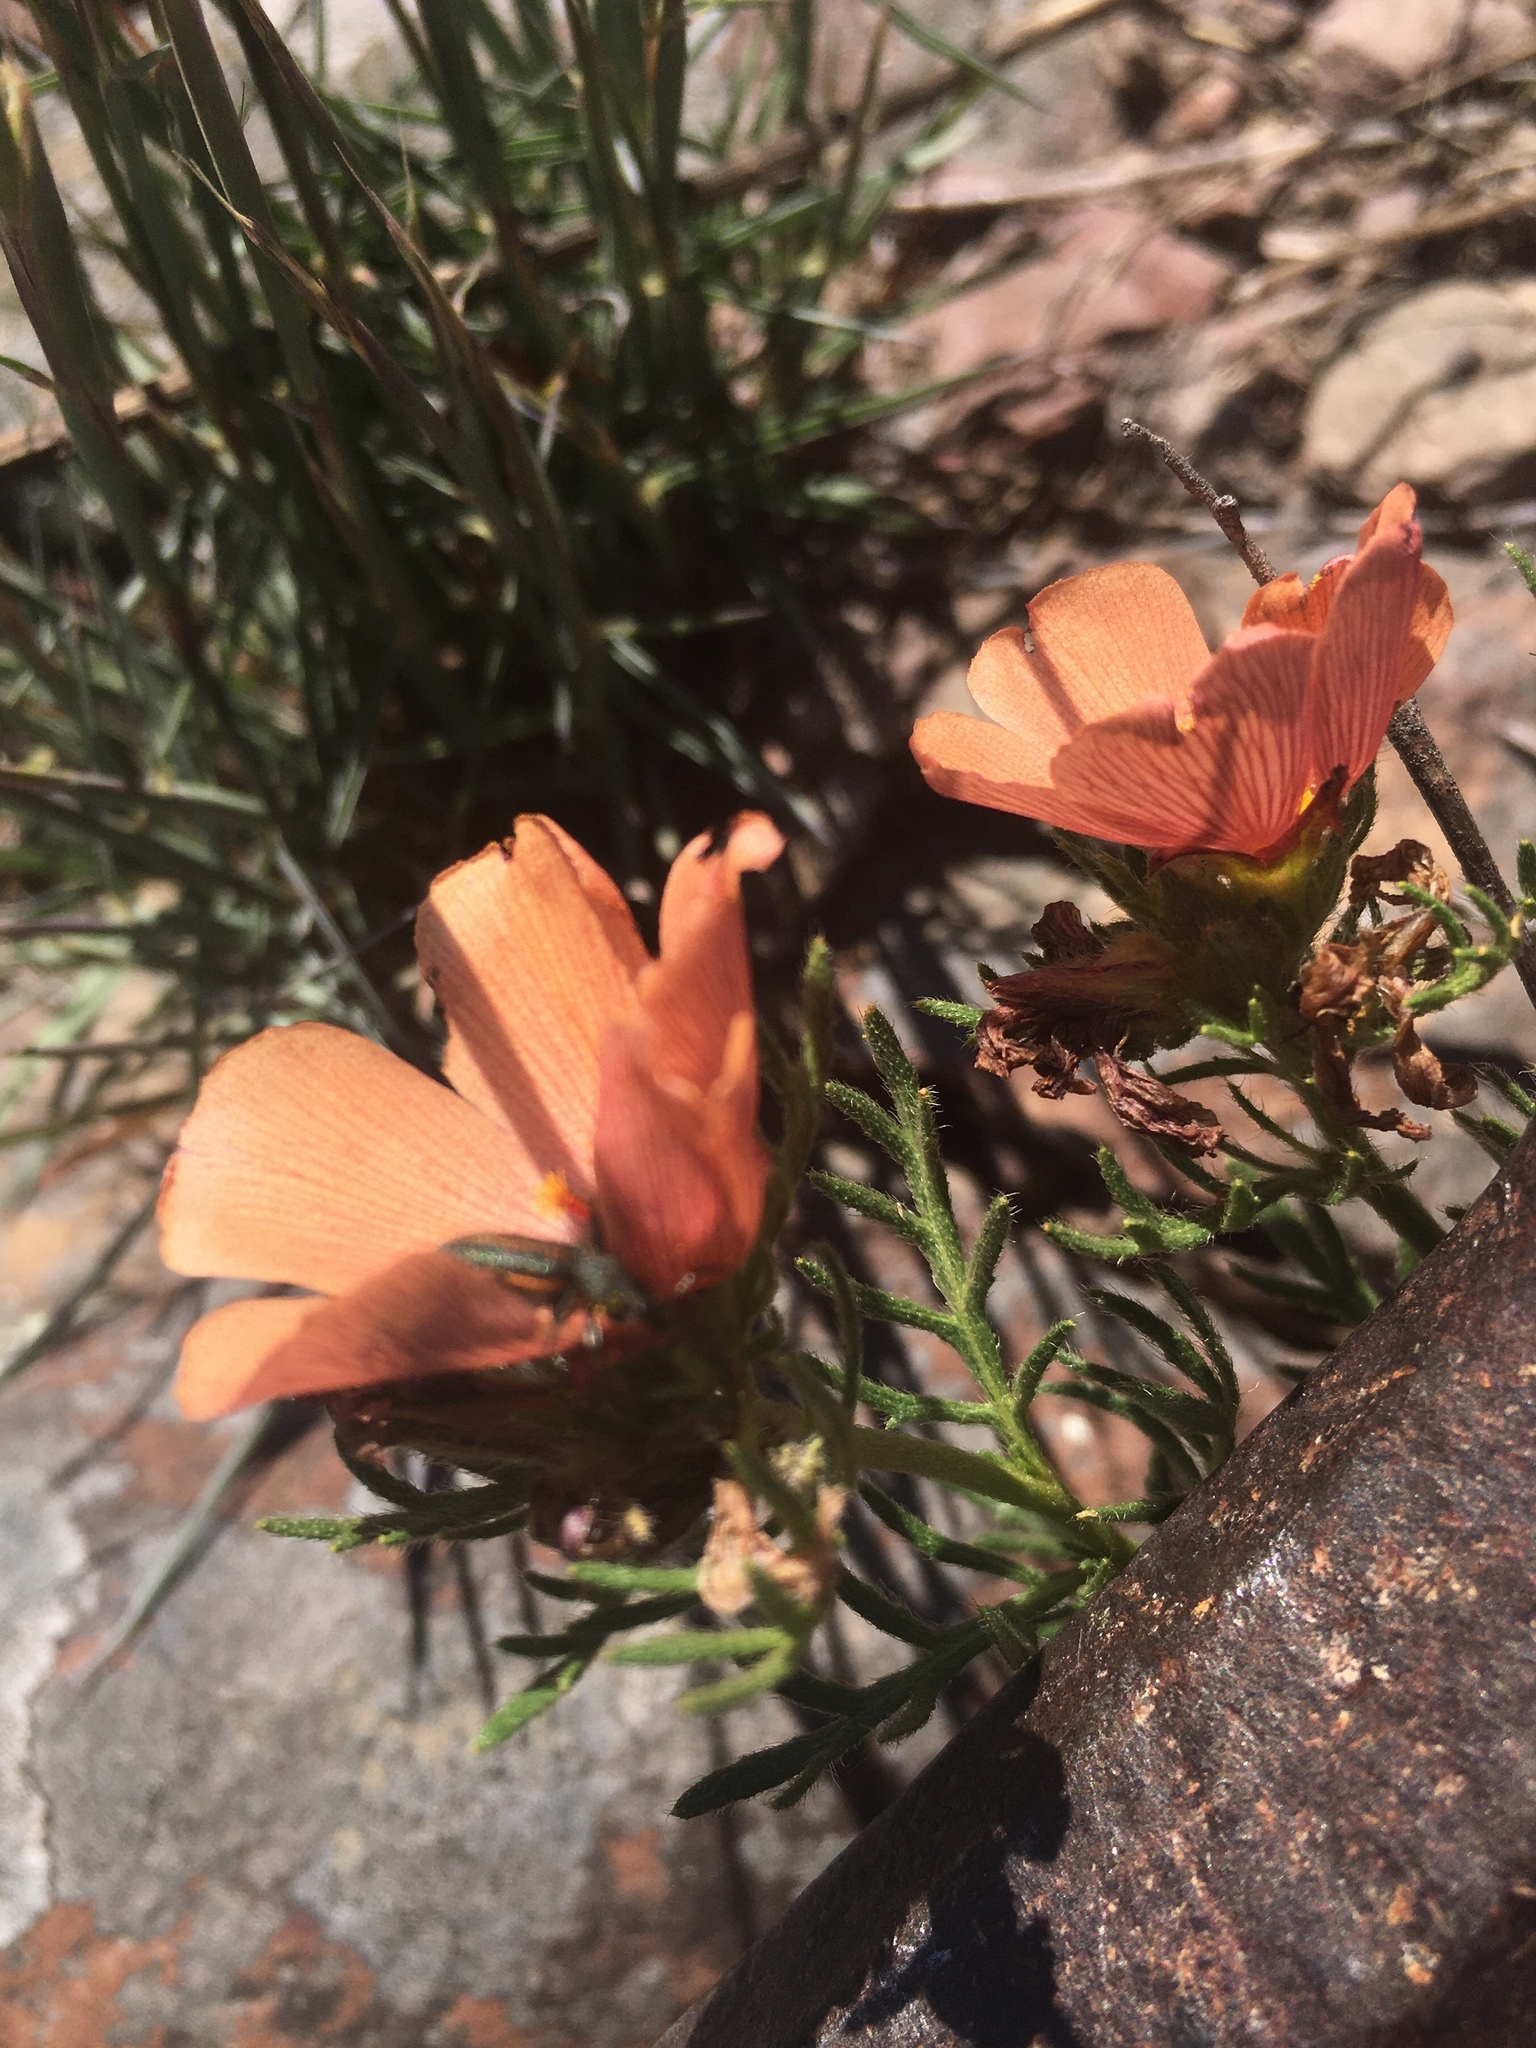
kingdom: Plantae
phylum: Tracheophyta
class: Magnoliopsida
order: Malpighiales
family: Turneraceae
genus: Turnera
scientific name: Turnera sidoides
